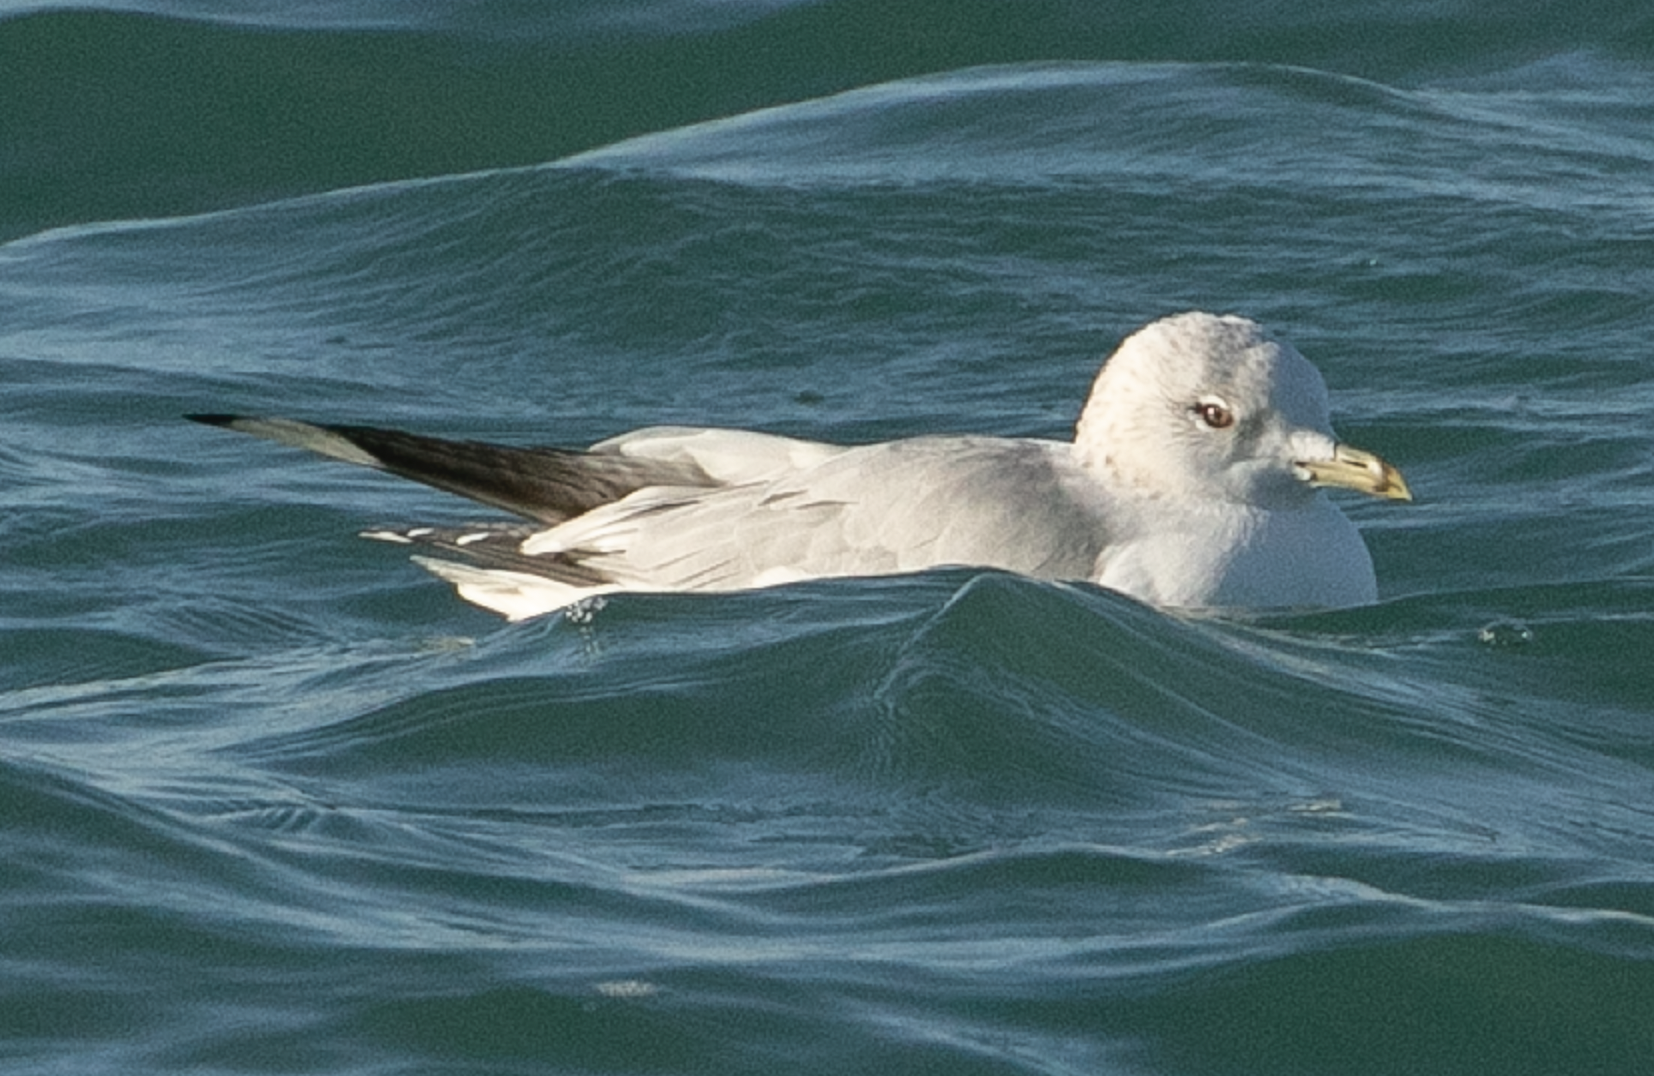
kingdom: Animalia
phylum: Chordata
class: Aves
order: Charadriiformes
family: Laridae
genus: Larus
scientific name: Larus canus
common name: Mew gull
